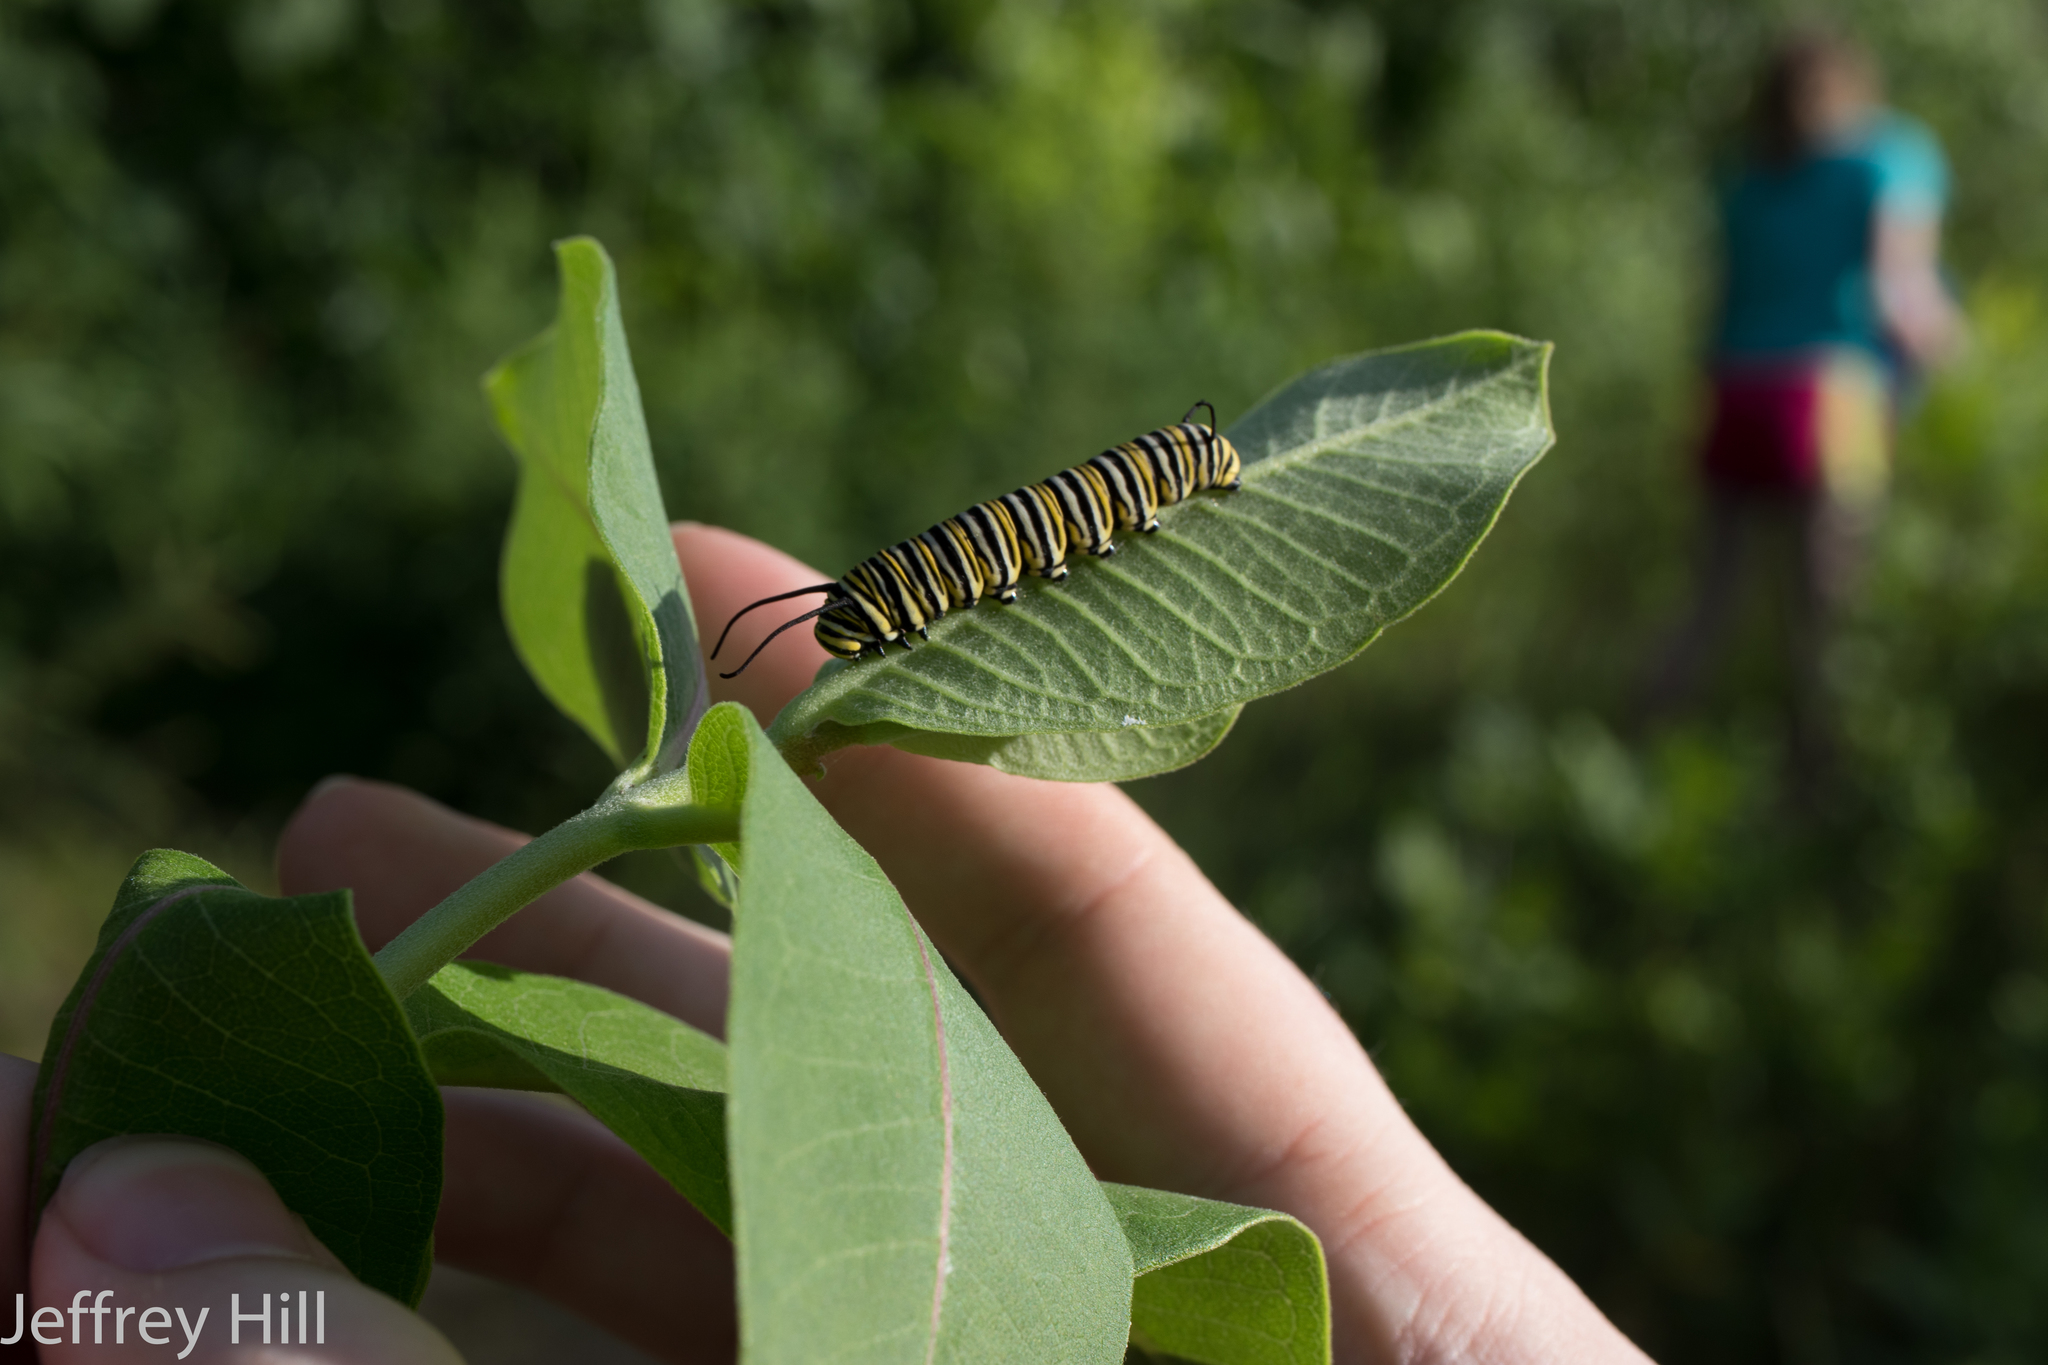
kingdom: Animalia
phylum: Arthropoda
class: Insecta
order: Lepidoptera
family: Nymphalidae
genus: Danaus
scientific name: Danaus plexippus
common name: Monarch
